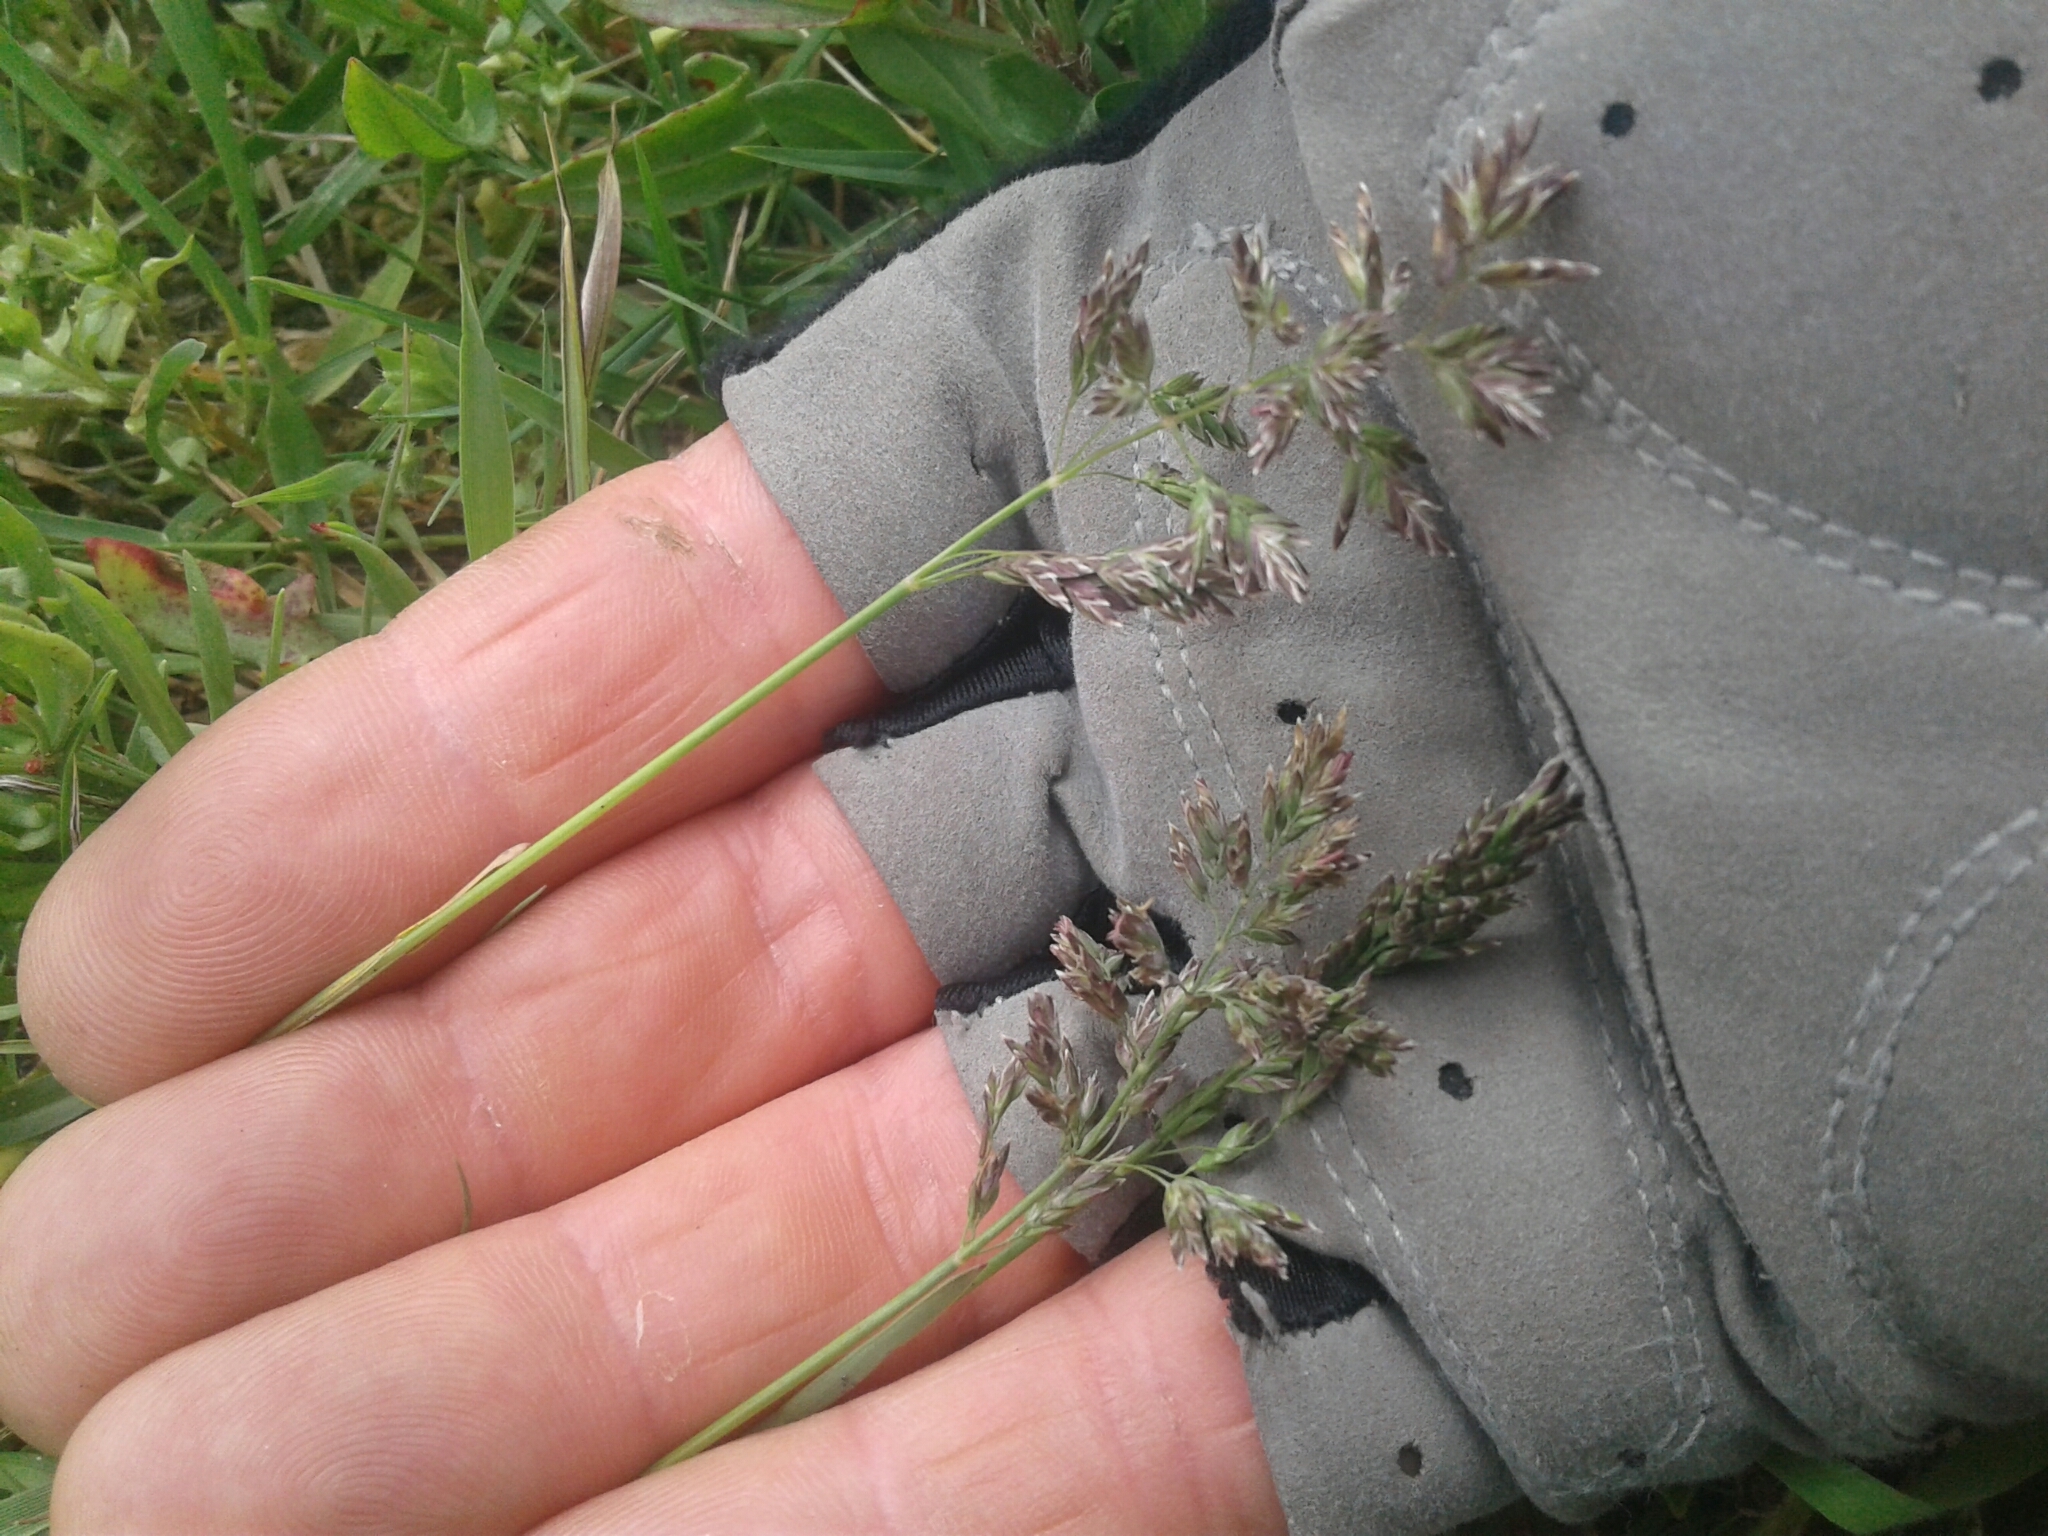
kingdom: Plantae
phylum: Tracheophyta
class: Liliopsida
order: Poales
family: Poaceae
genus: Poa
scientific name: Poa trivialis
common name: Rough bluegrass
